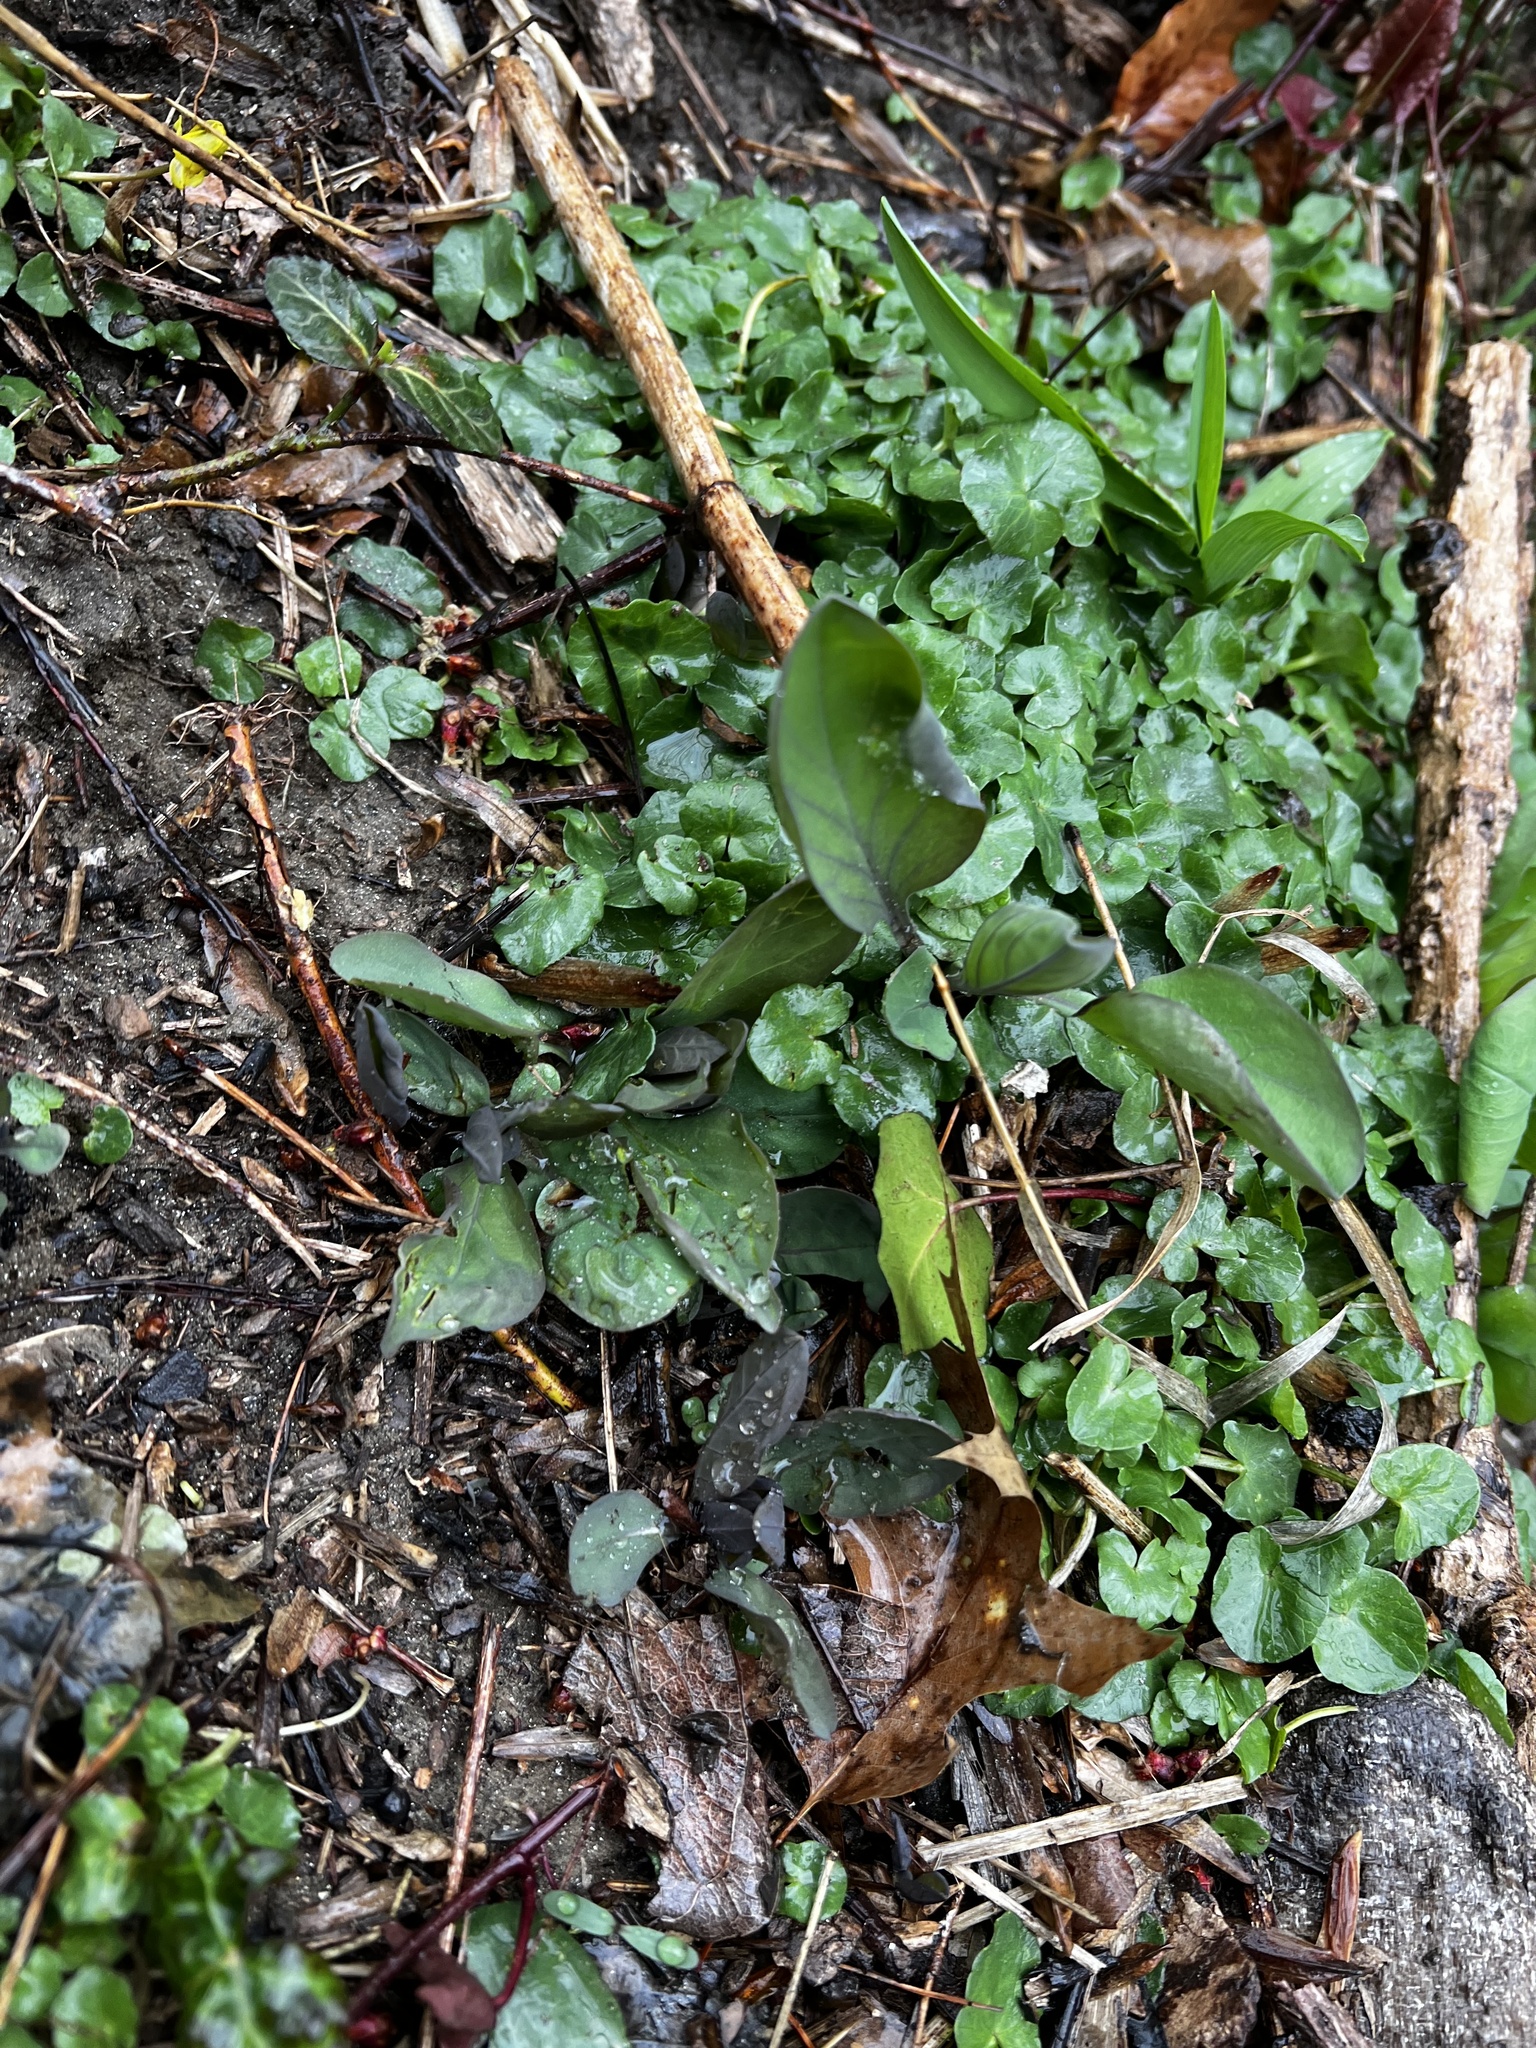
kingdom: Plantae
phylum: Tracheophyta
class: Magnoliopsida
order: Boraginales
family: Boraginaceae
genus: Mertensia
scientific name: Mertensia virginica
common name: Virginia bluebells
